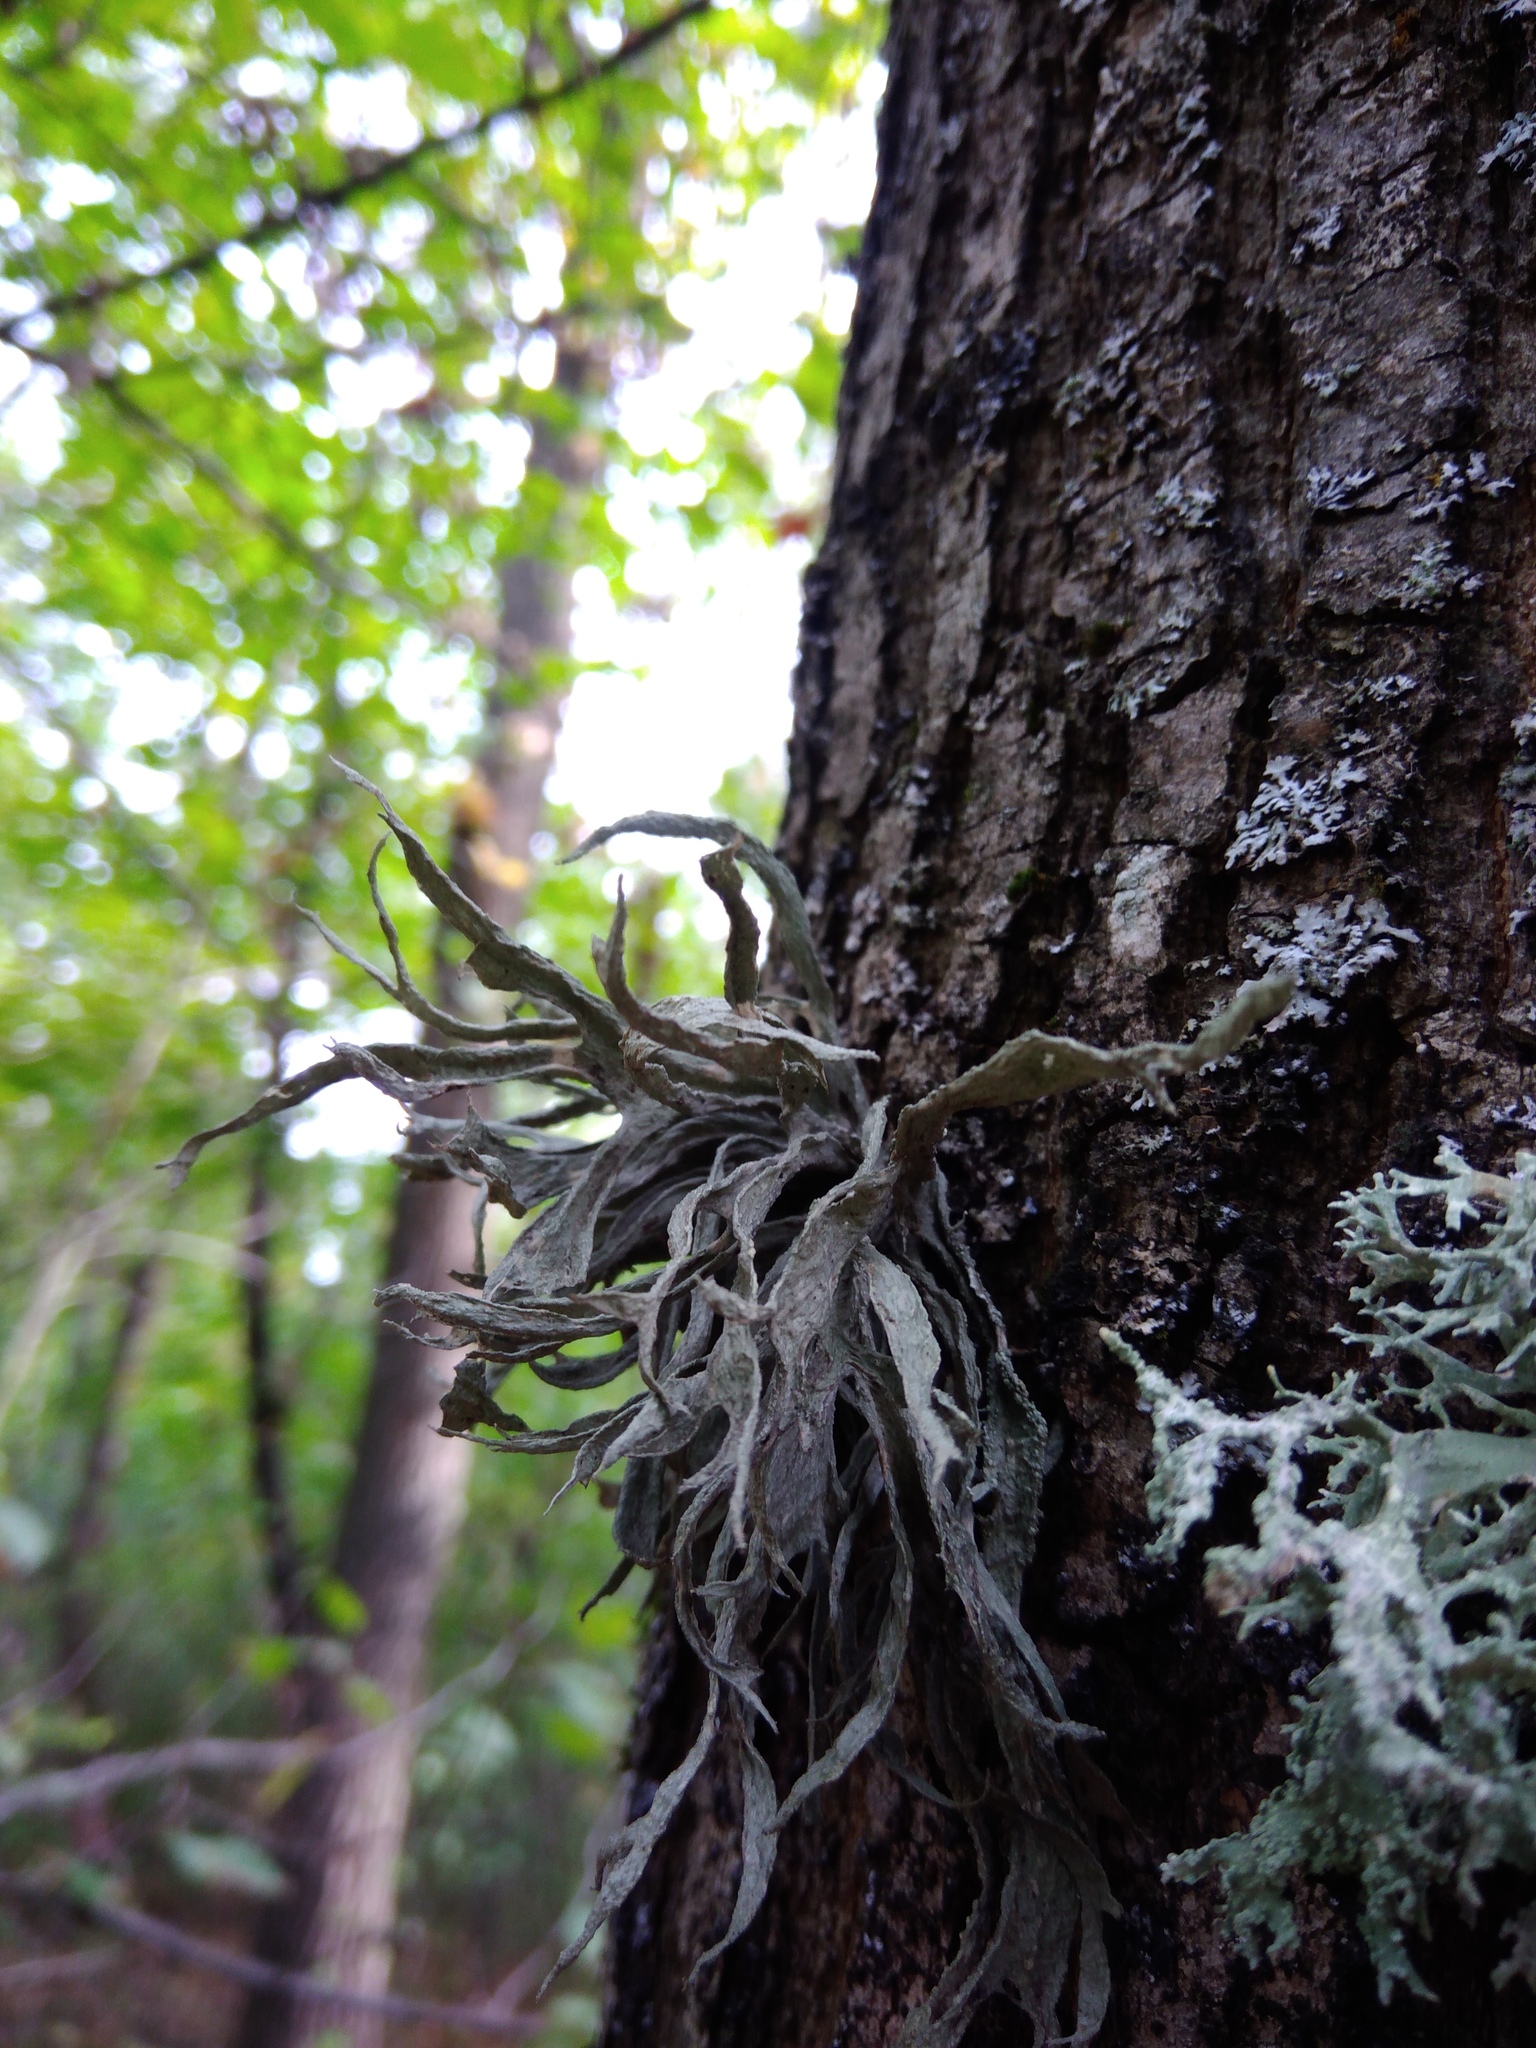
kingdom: Fungi
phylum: Ascomycota
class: Lecanoromycetes
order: Lecanorales
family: Ramalinaceae
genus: Ramalina
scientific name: Ramalina fraxinea
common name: Cartilage lichen
